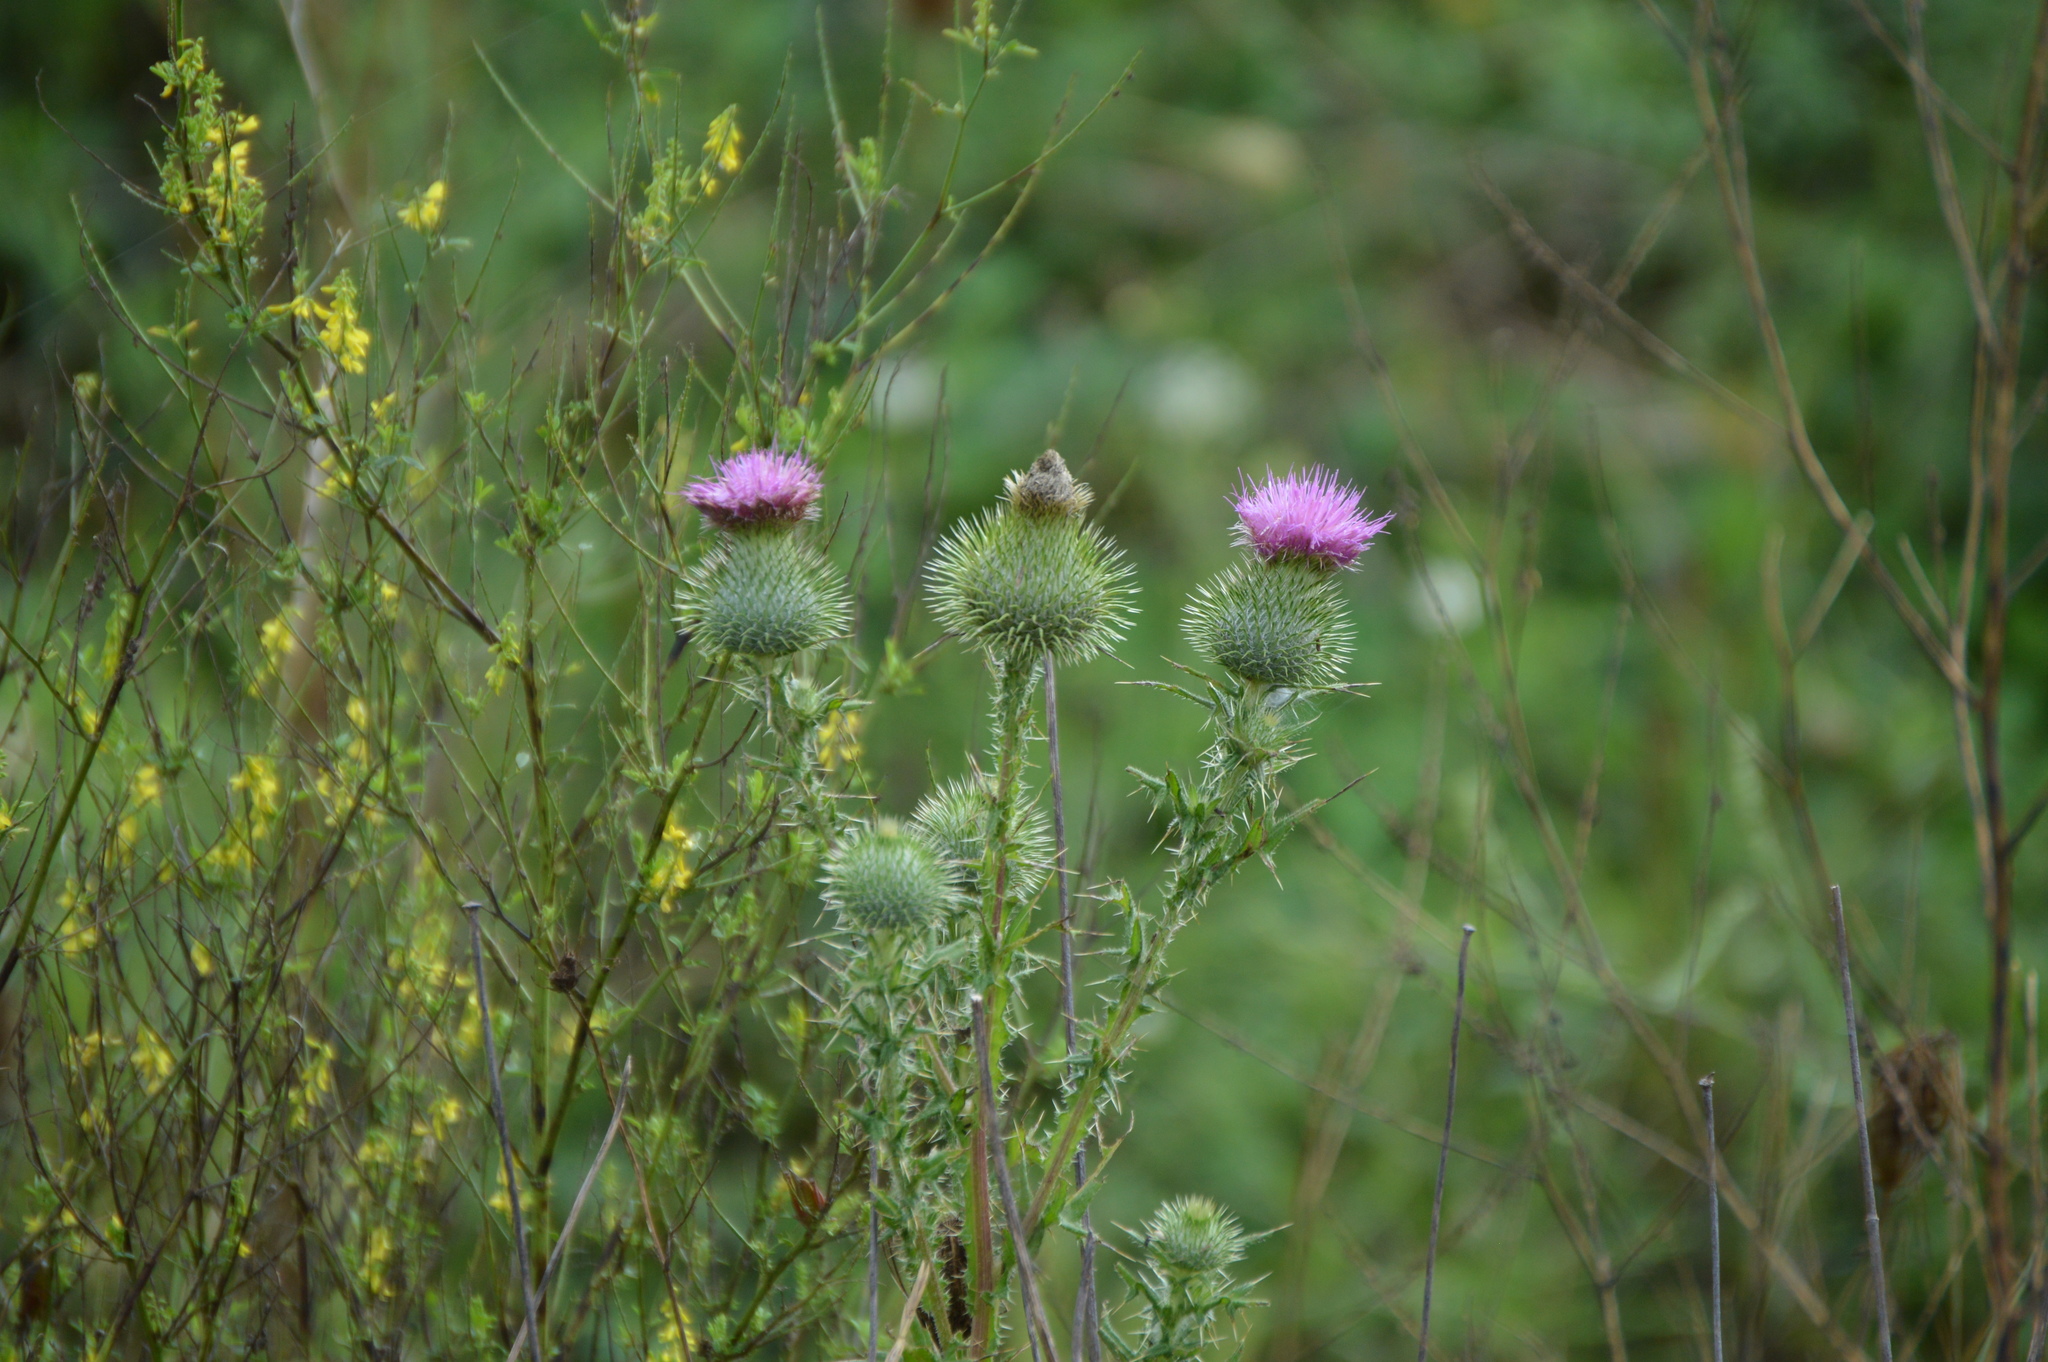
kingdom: Plantae
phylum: Tracheophyta
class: Magnoliopsida
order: Asterales
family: Asteraceae
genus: Cirsium
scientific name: Cirsium vulgare
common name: Bull thistle
